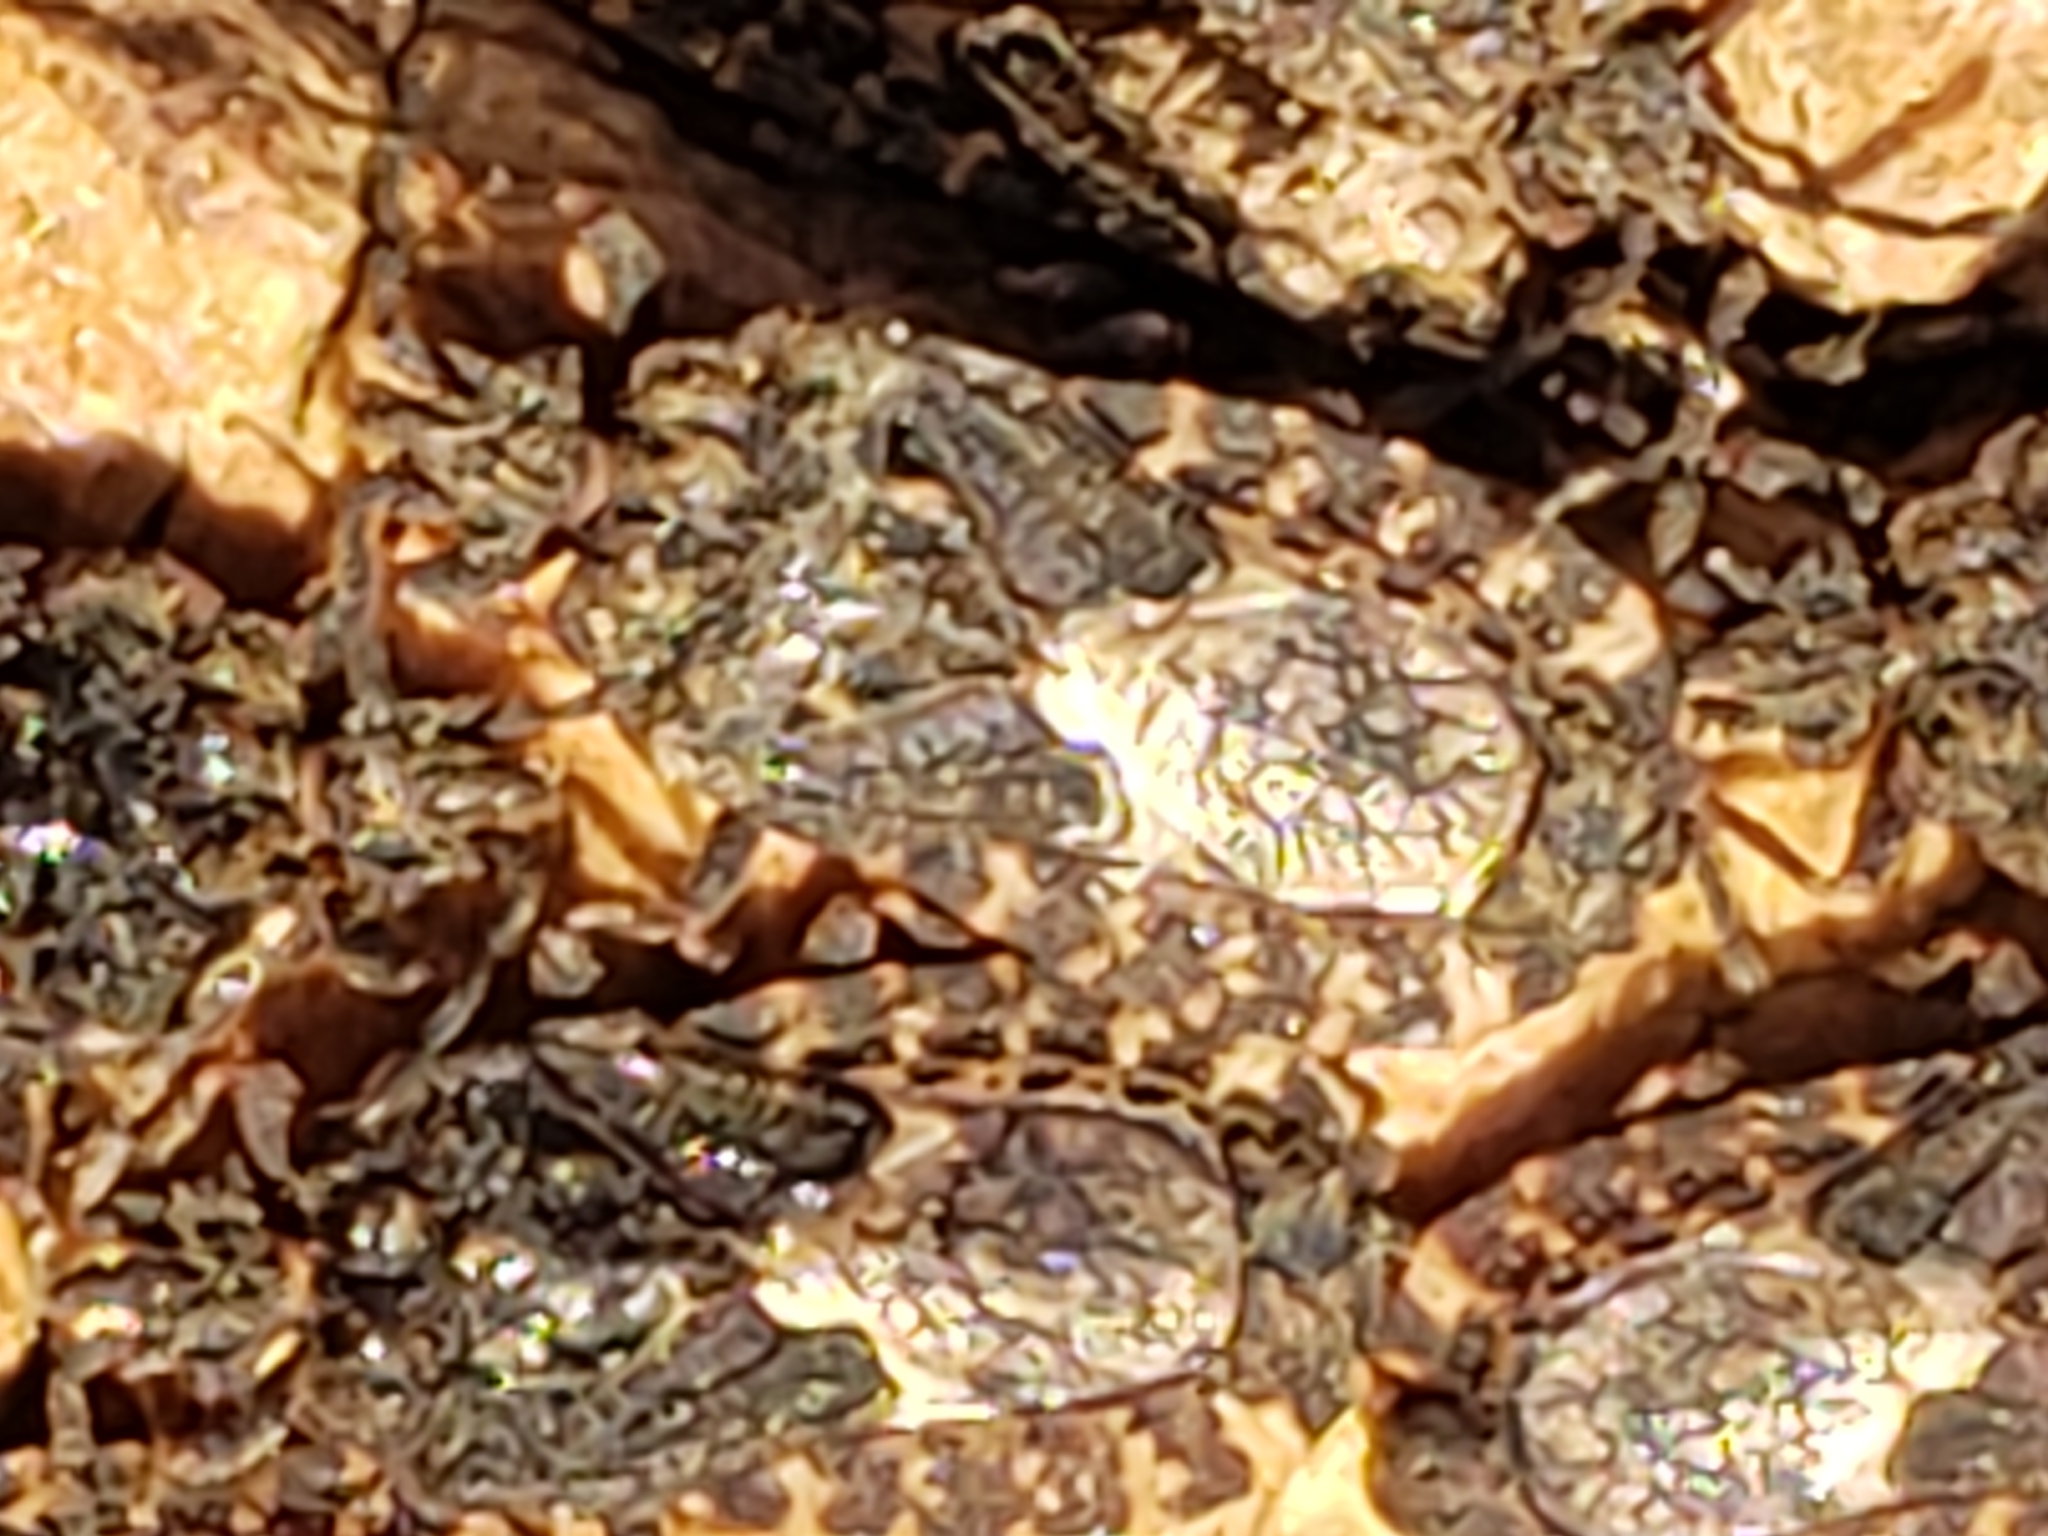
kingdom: Animalia
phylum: Arthropoda
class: Insecta
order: Hemiptera
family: Aradidae
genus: Mezira
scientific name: Mezira
